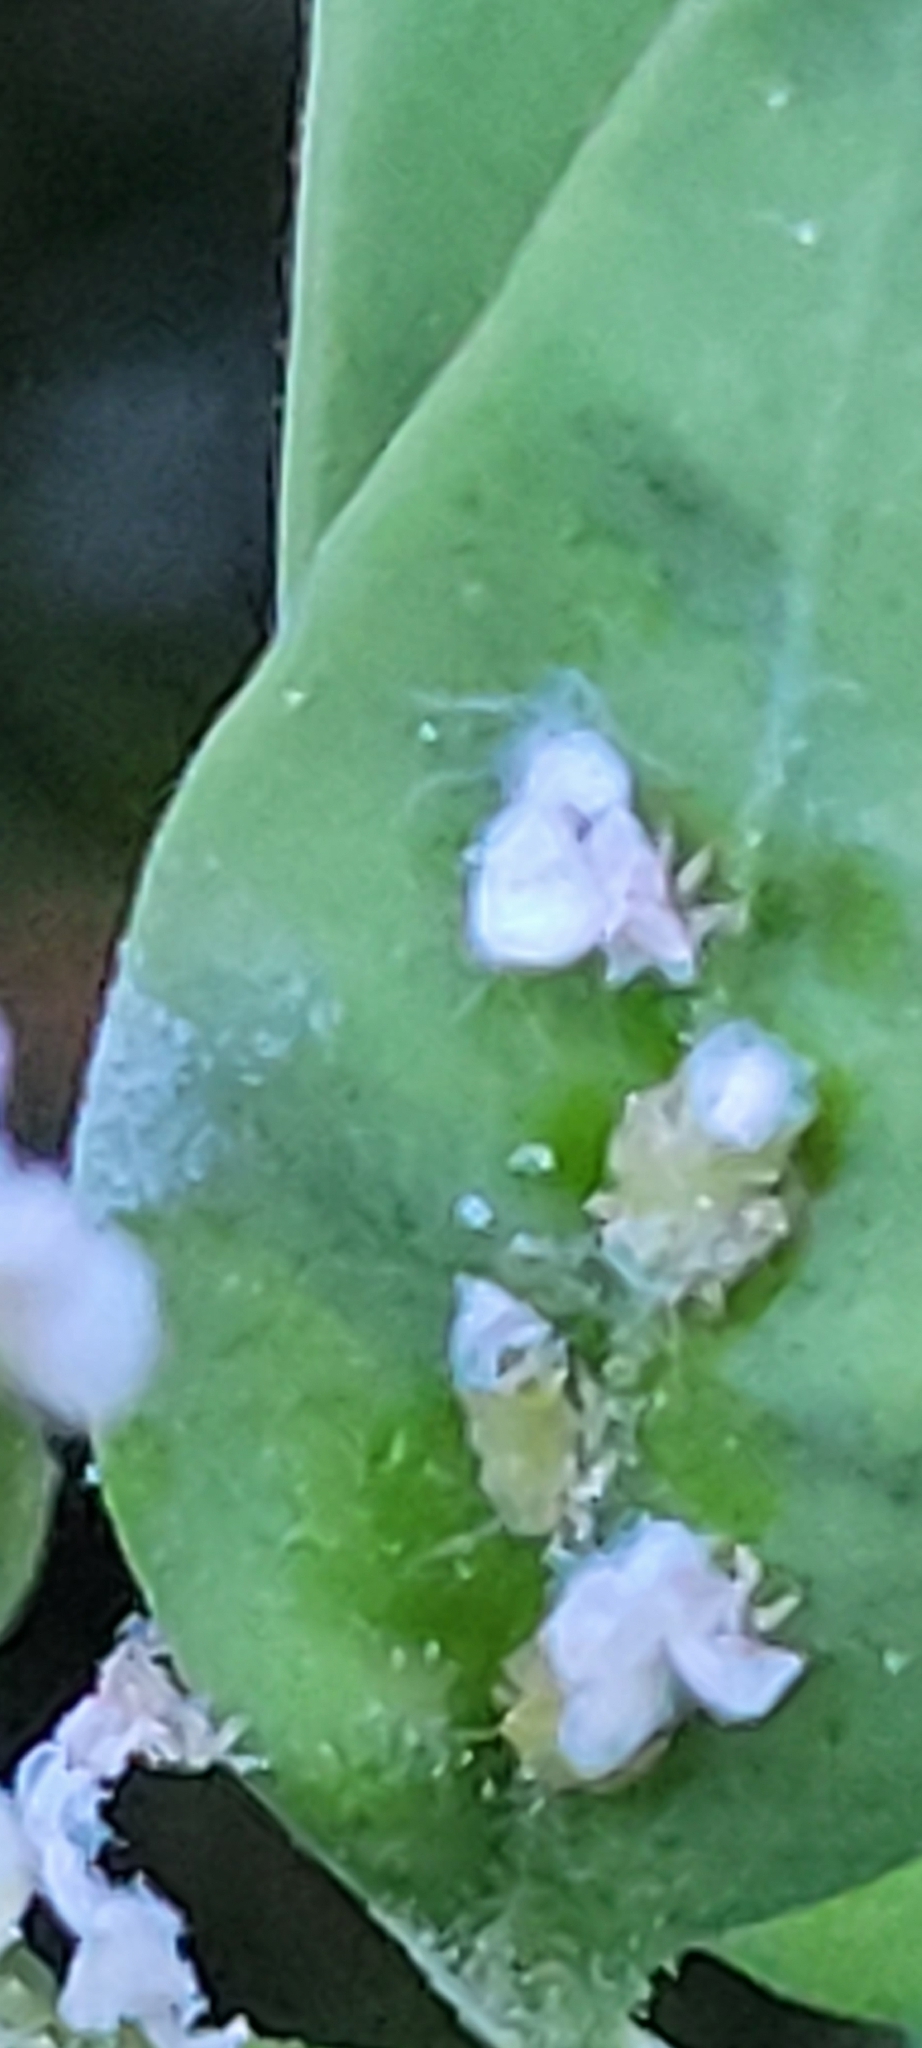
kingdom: Animalia
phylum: Arthropoda
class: Insecta
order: Hemiptera
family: Psyllidae
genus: Psylla
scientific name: Psylla buxi
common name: Boxwood psyllid
